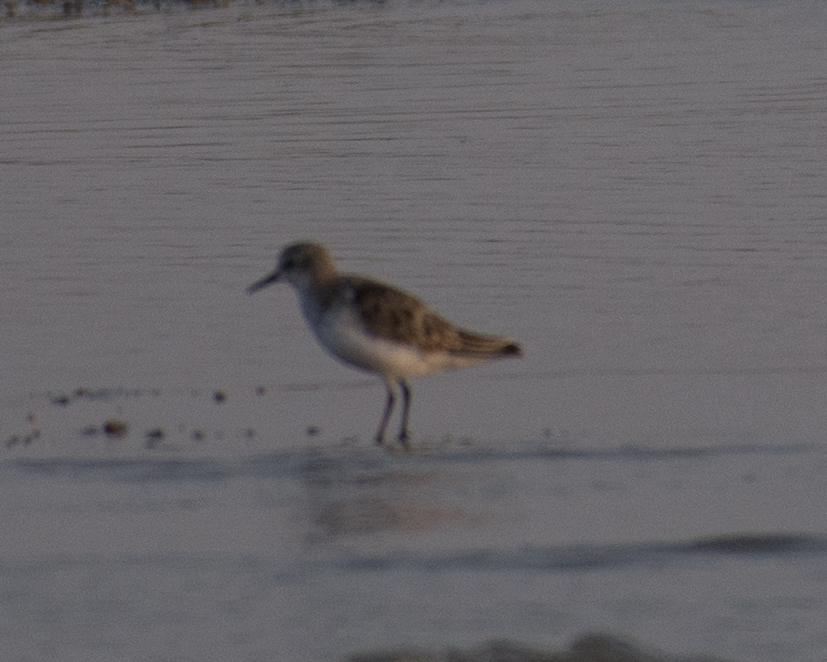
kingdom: Animalia
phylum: Chordata
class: Aves
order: Charadriiformes
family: Scolopacidae
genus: Calidris
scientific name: Calidris minuta
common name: Little stint
